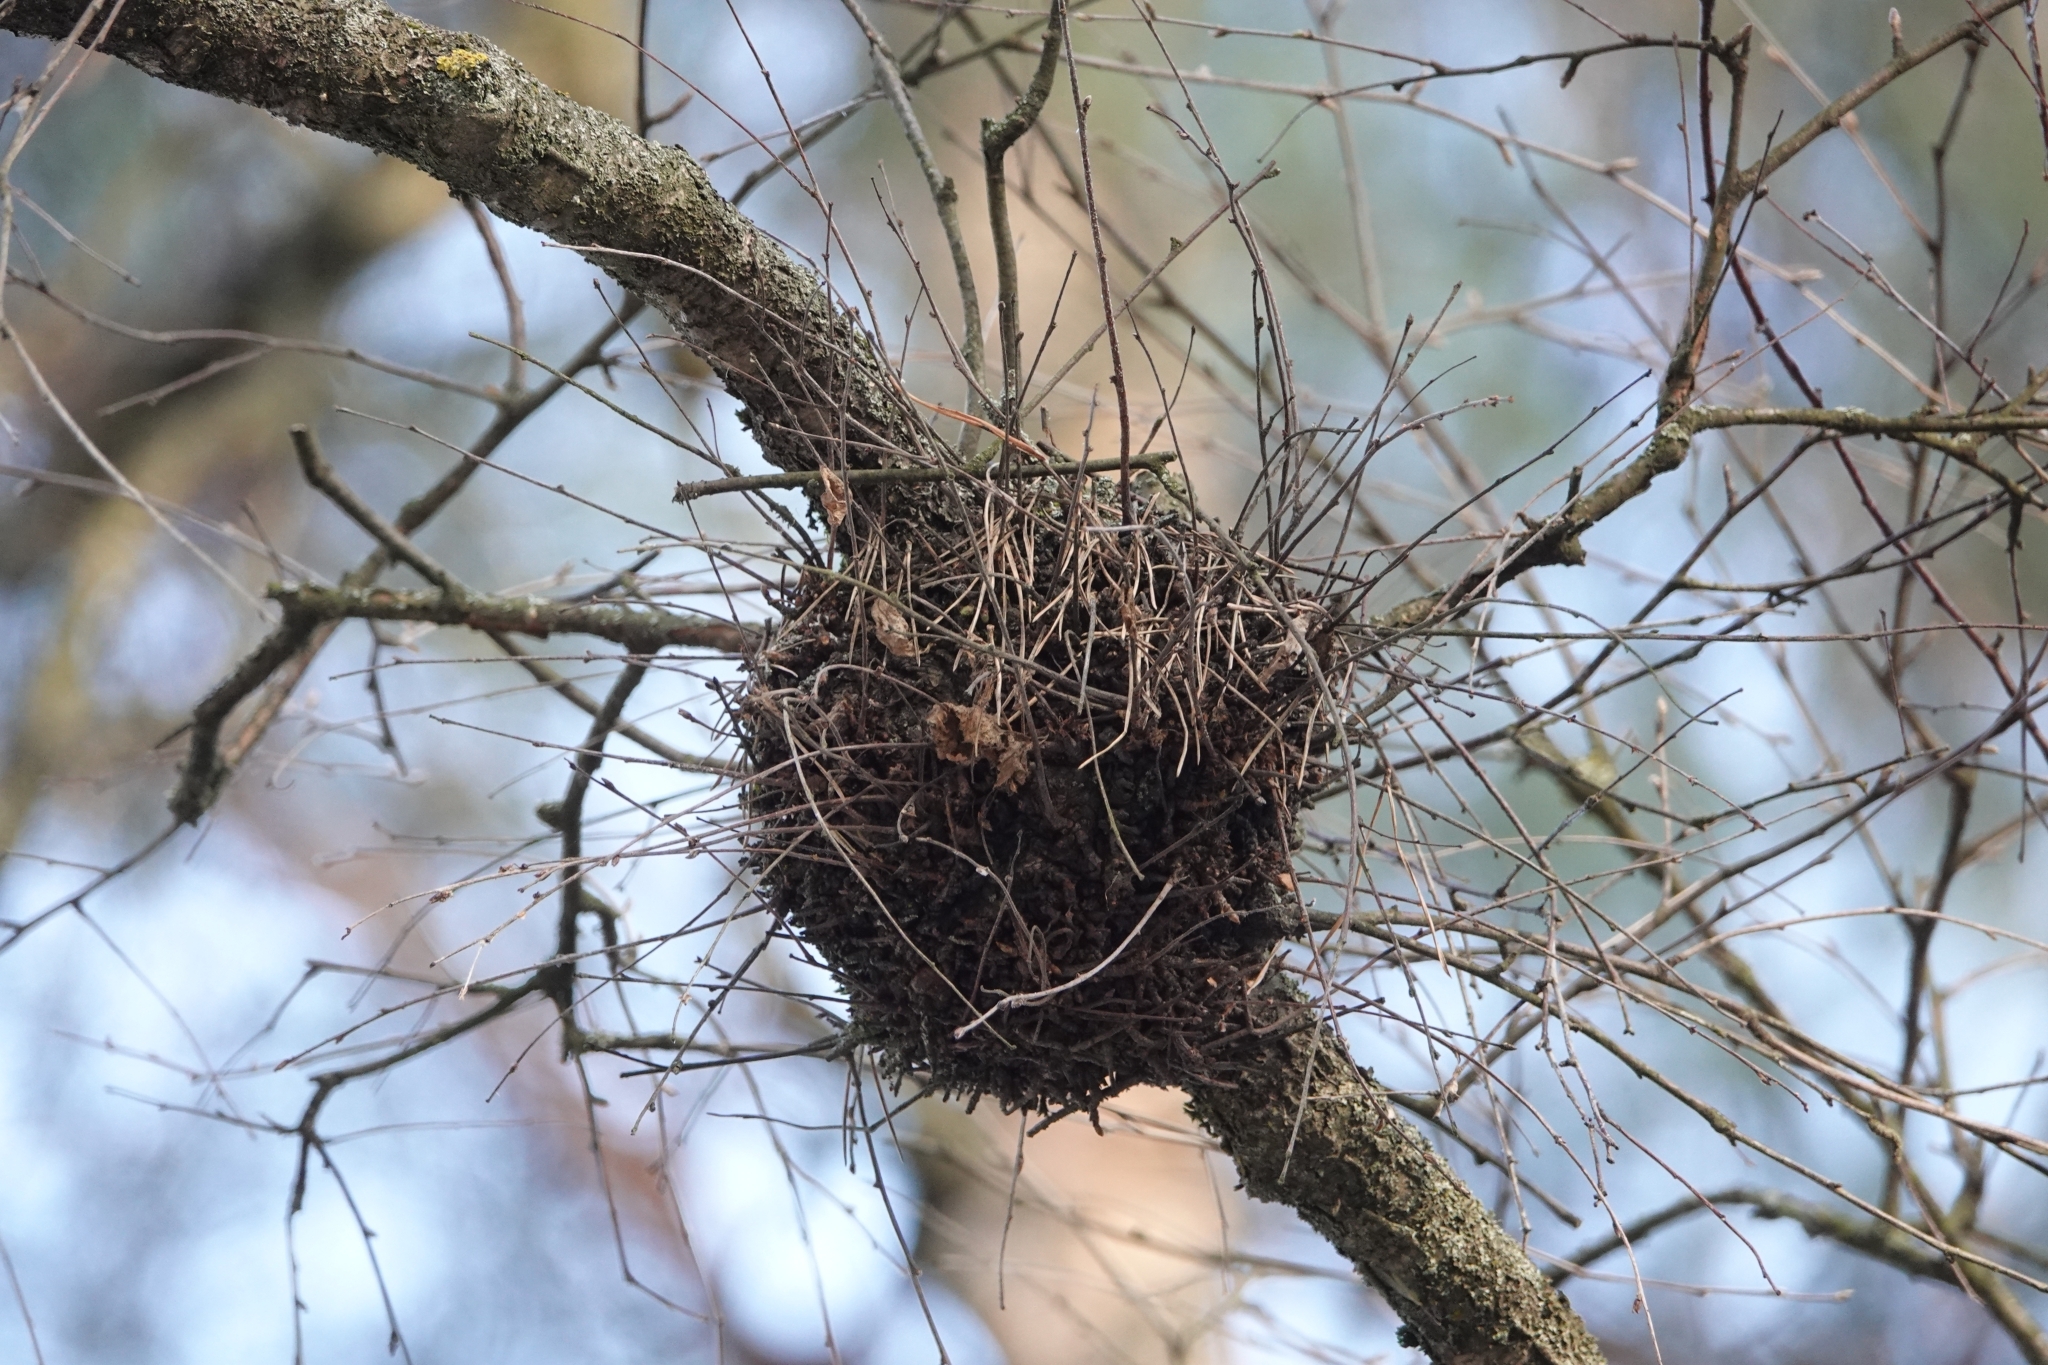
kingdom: Fungi
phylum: Ascomycota
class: Taphrinomycetes
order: Taphrinales
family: Taphrinaceae
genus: Taphrina
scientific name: Taphrina betulina
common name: Birch besom
